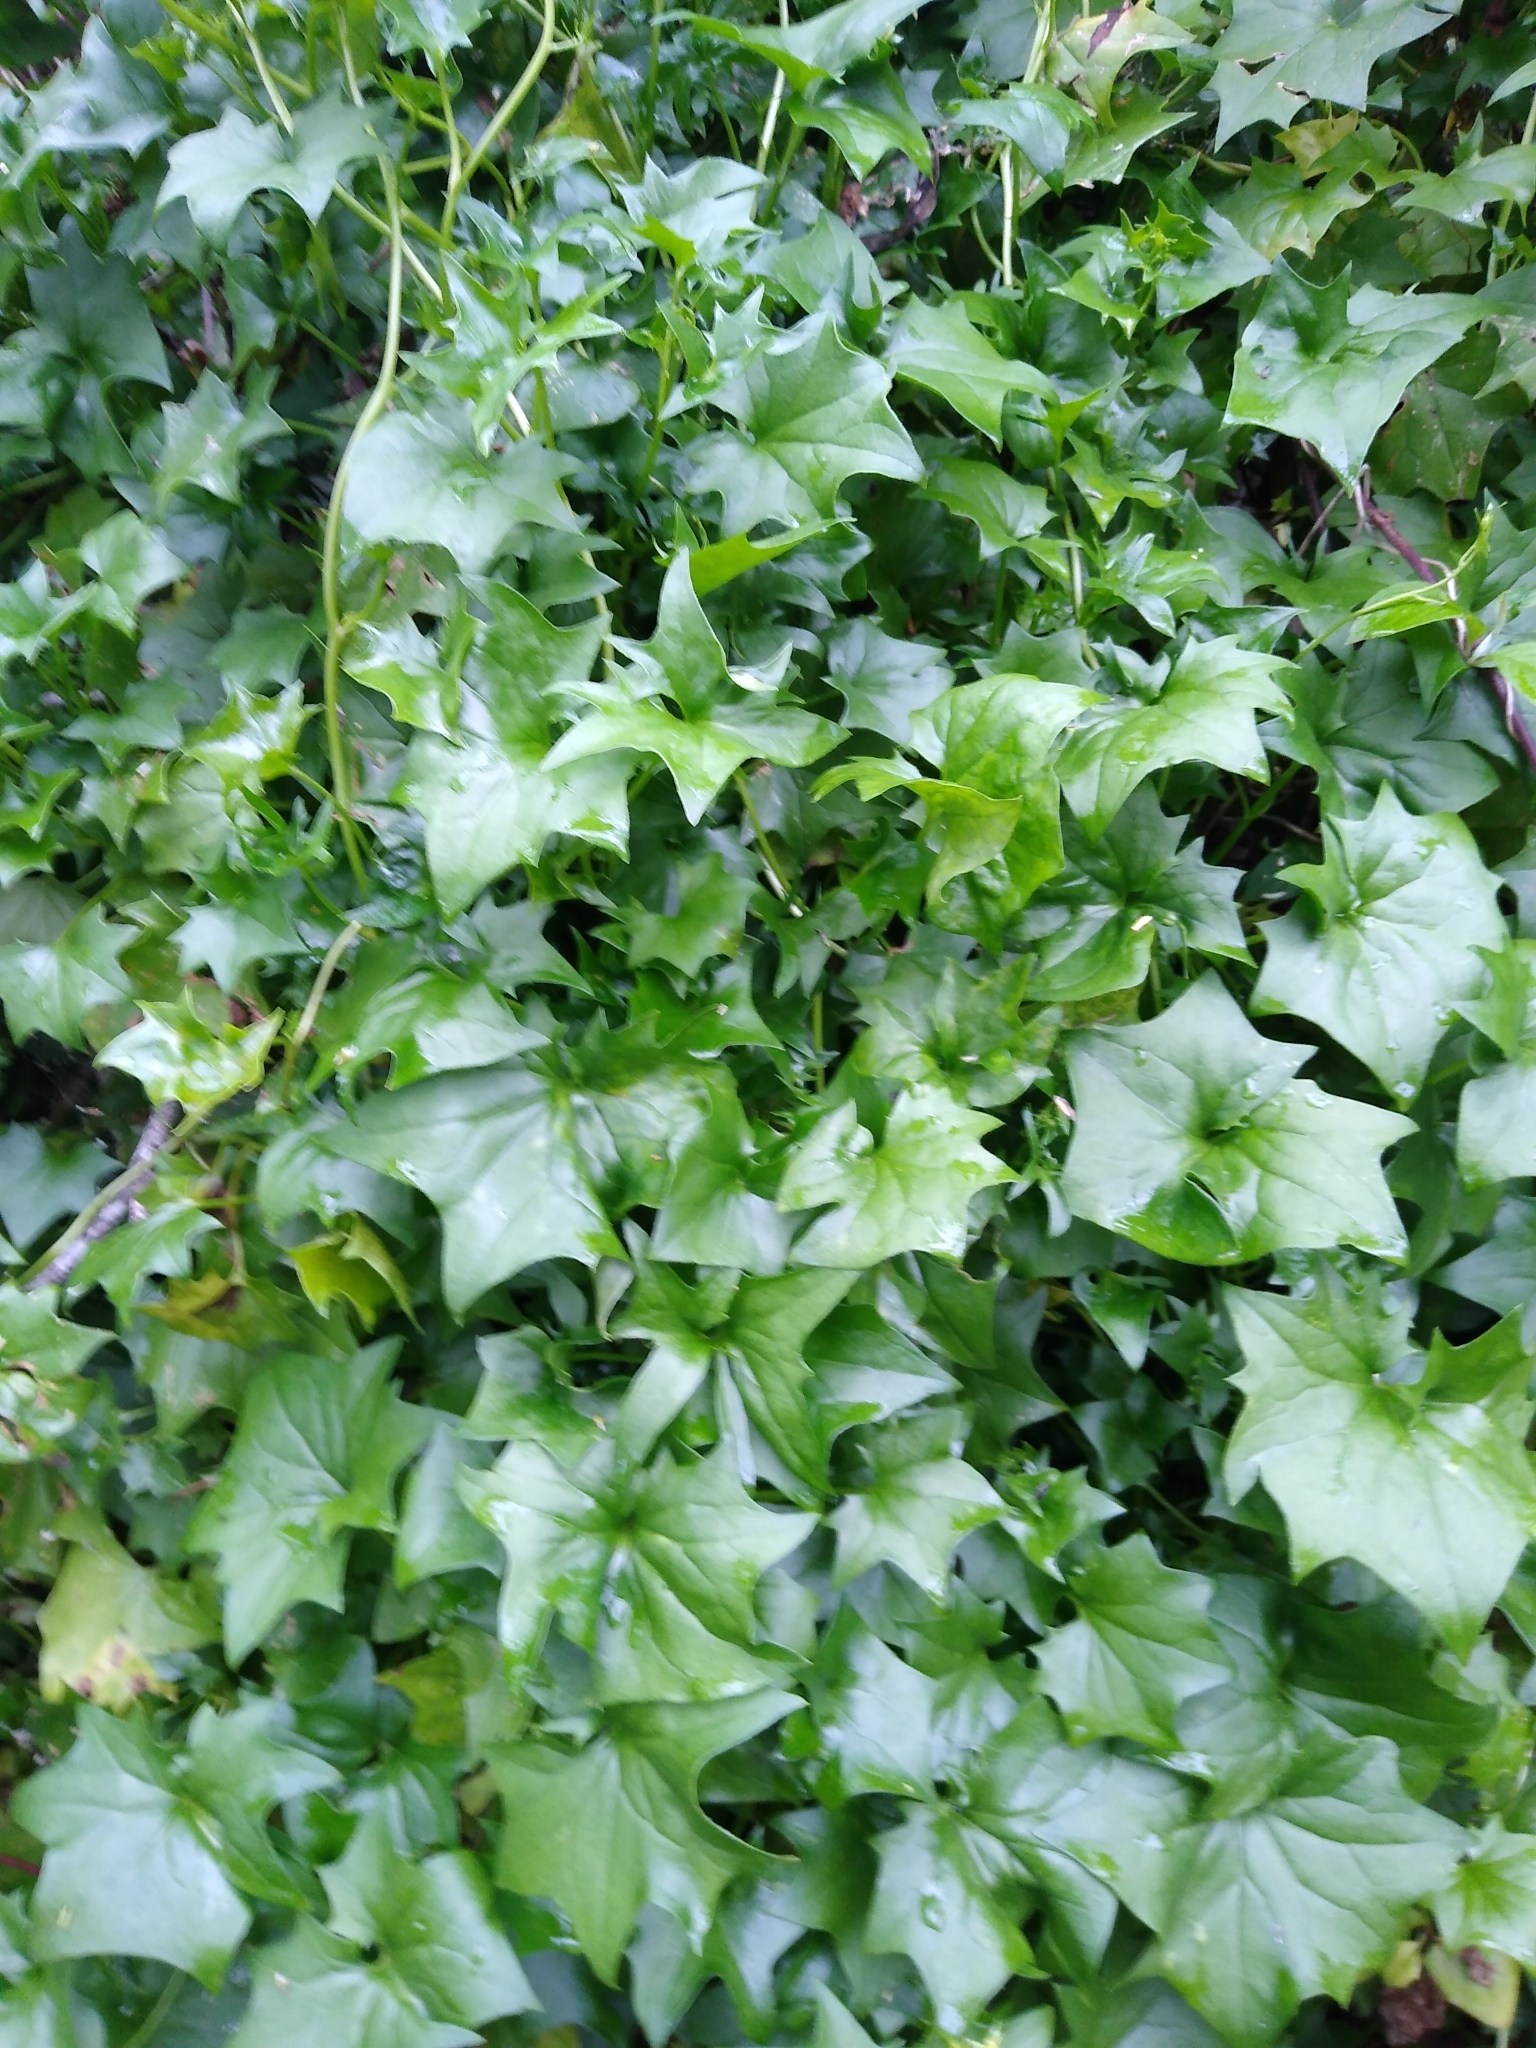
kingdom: Plantae
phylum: Tracheophyta
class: Magnoliopsida
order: Asterales
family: Asteraceae
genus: Delairea
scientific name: Delairea odorata
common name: Cape-ivy
